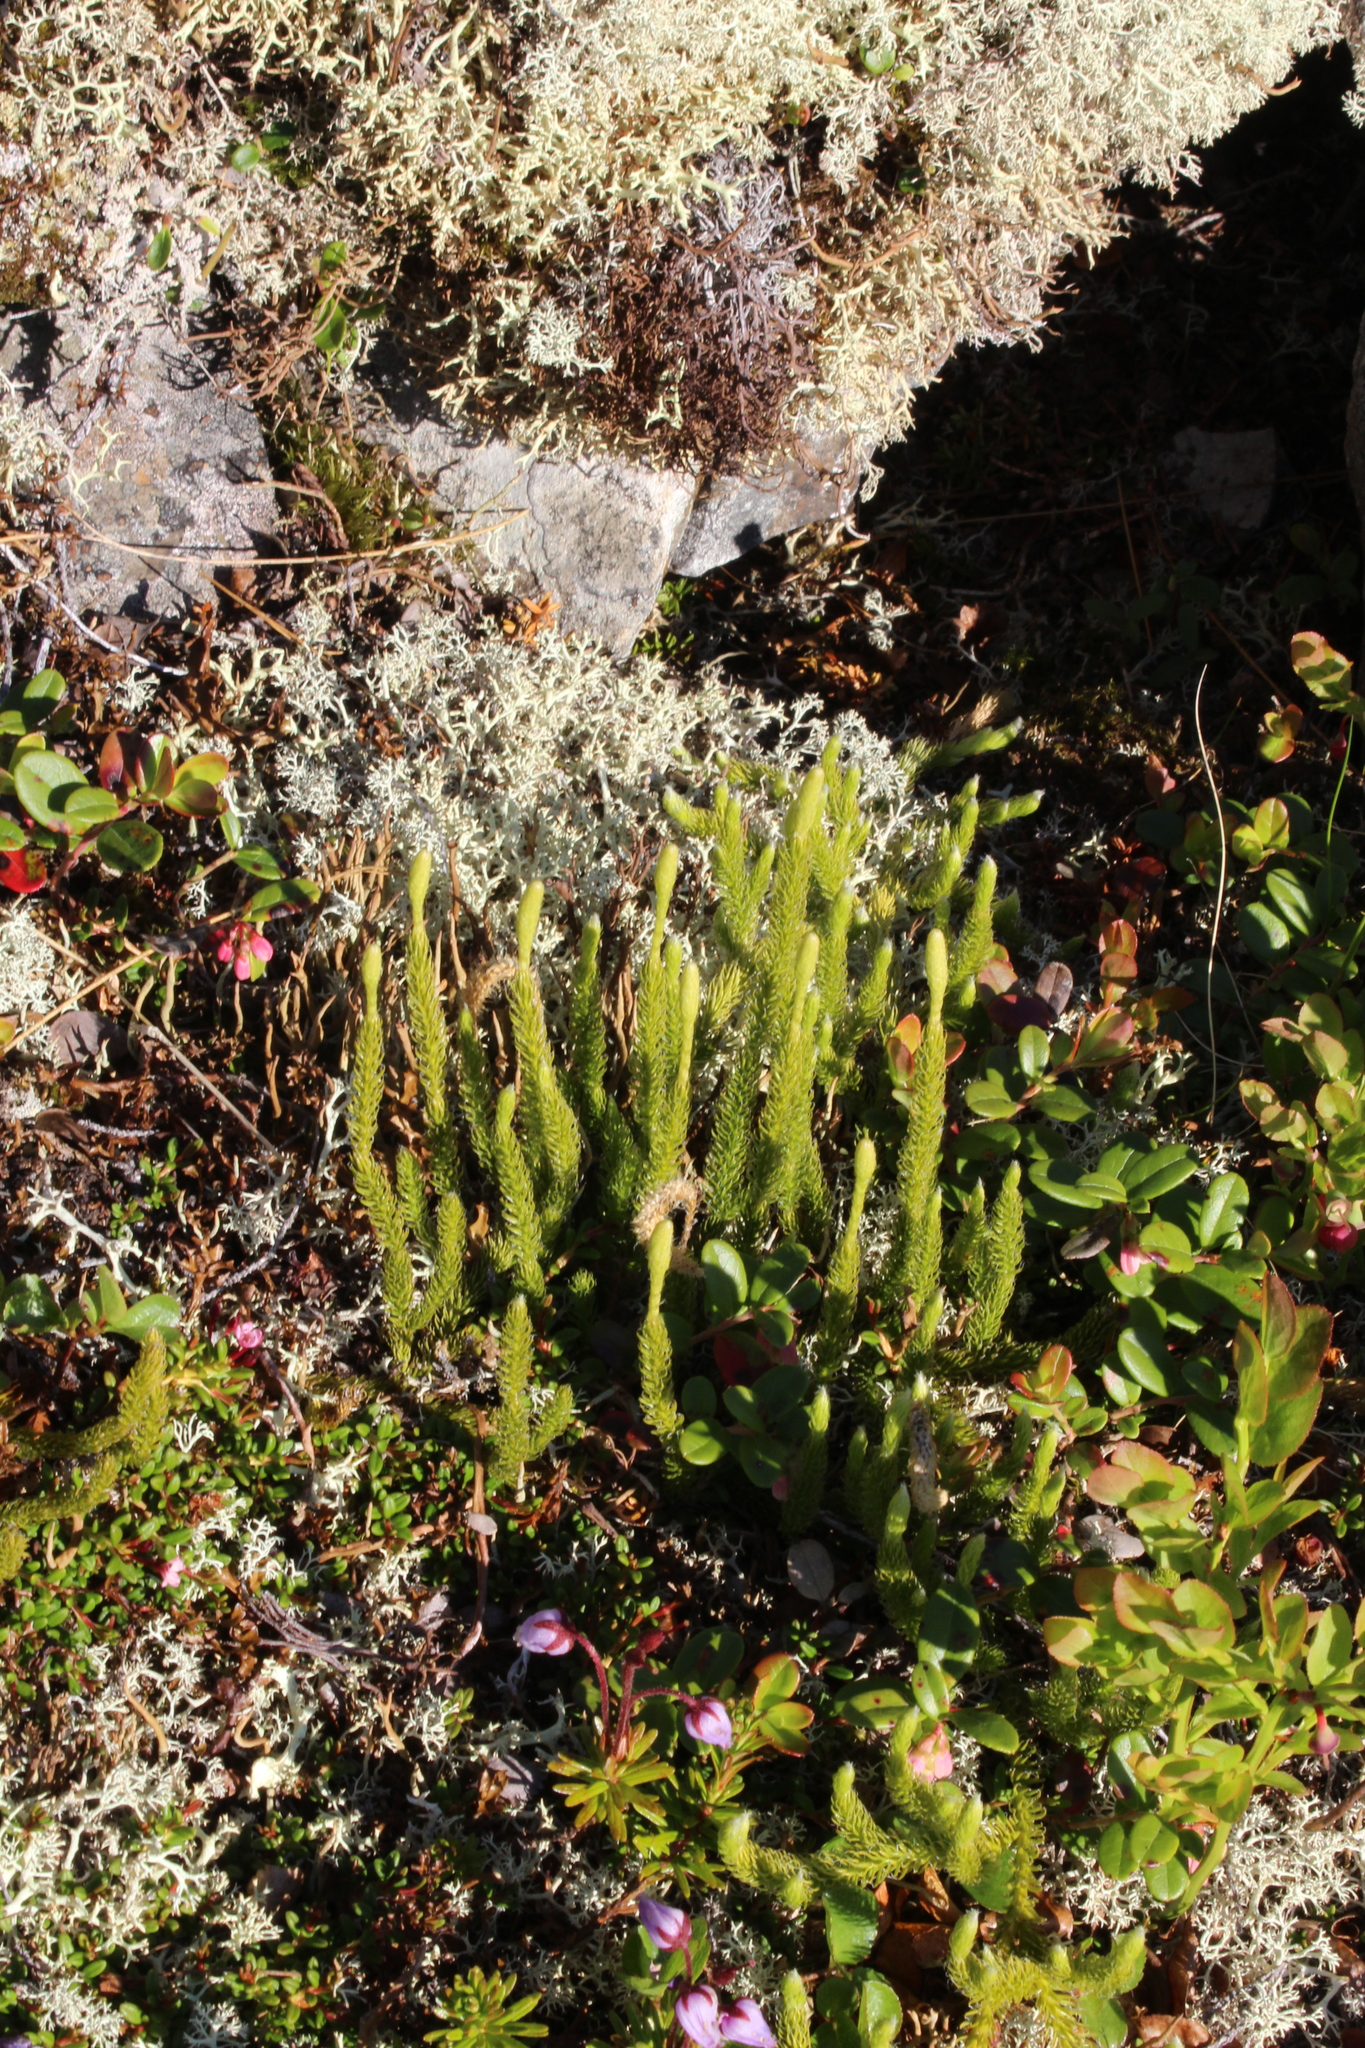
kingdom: Plantae
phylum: Tracheophyta
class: Lycopodiopsida
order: Lycopodiales
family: Lycopodiaceae
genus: Lycopodium
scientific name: Lycopodium lagopus
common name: One-cone clubmoss
